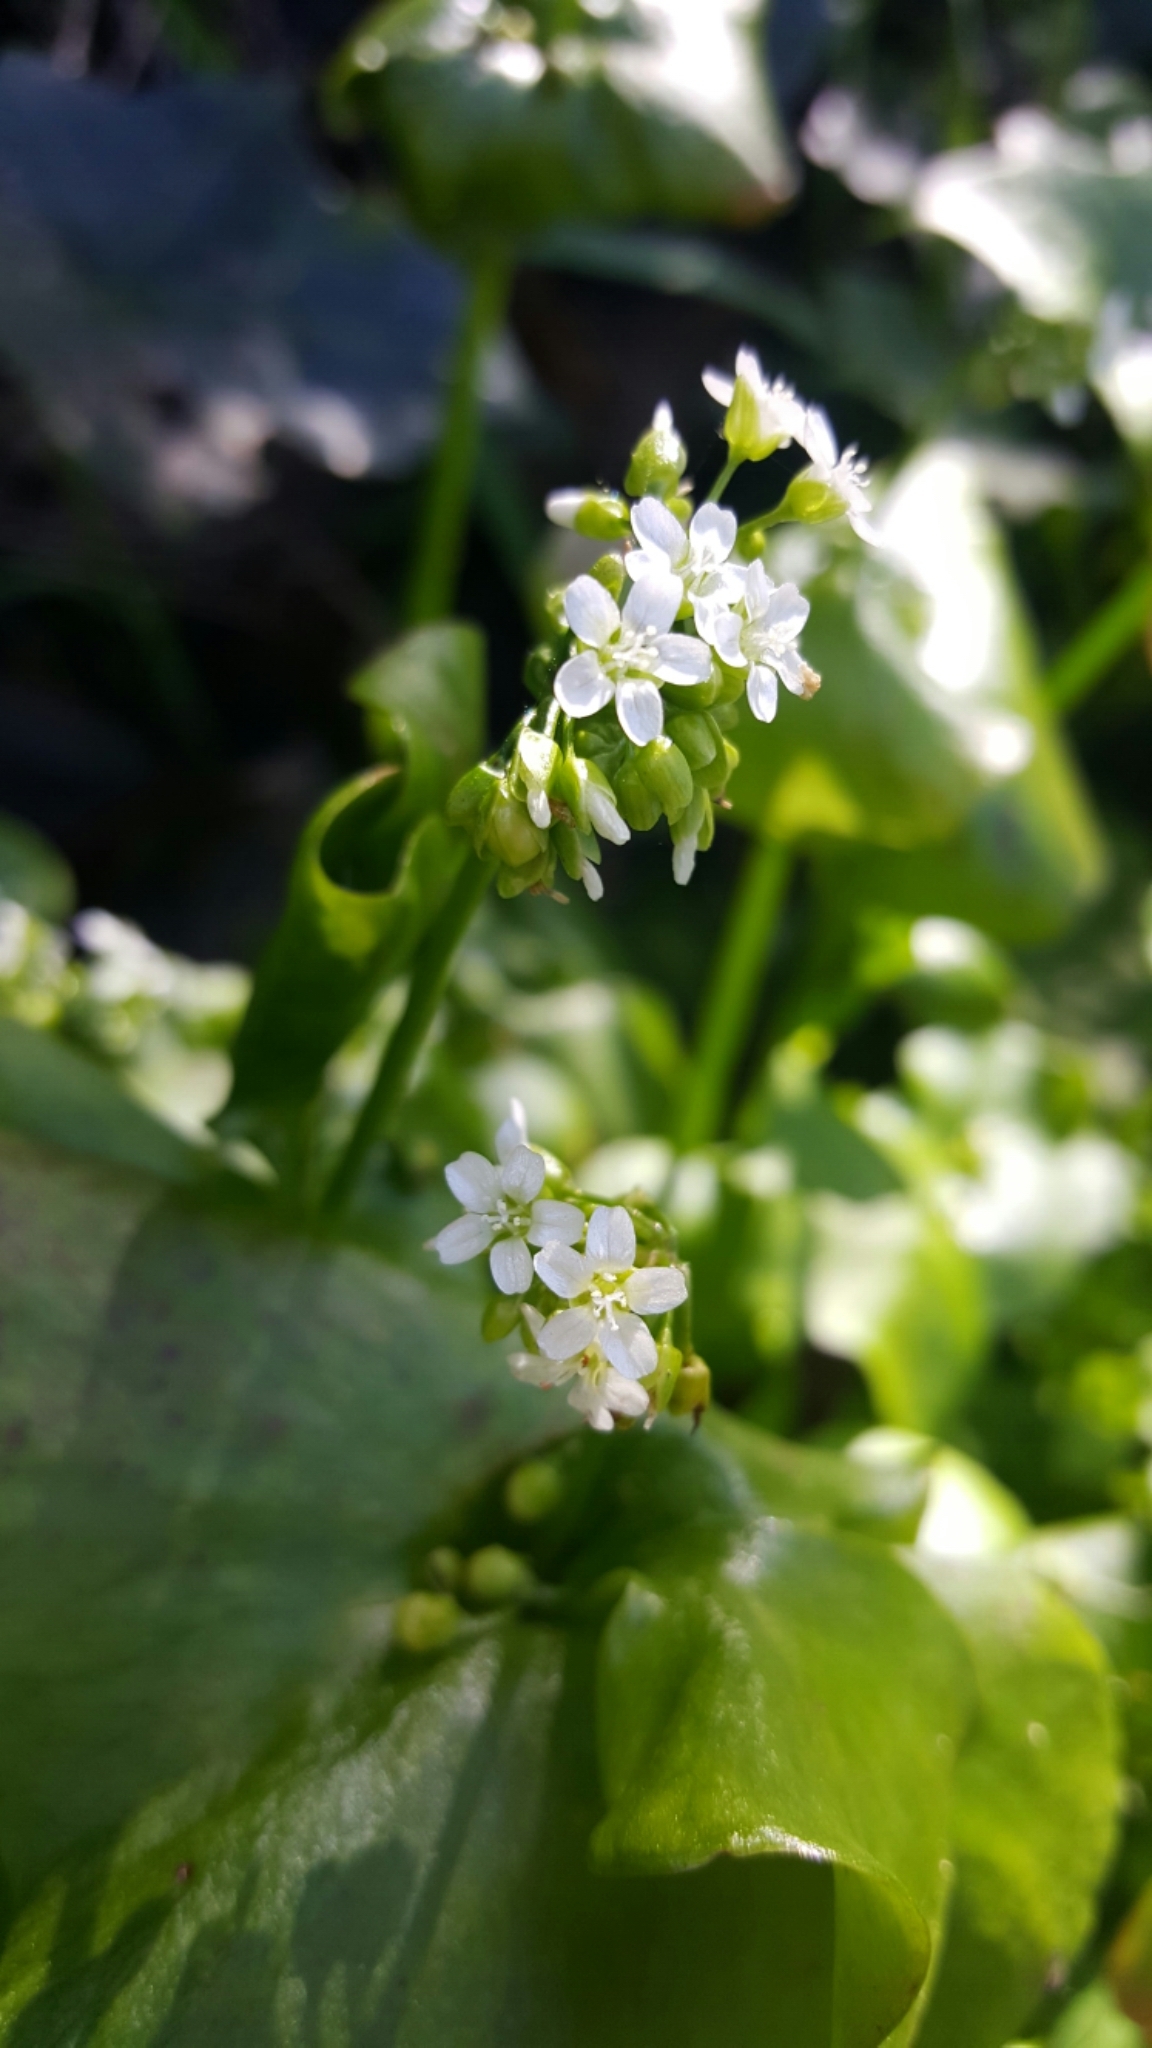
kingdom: Plantae
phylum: Tracheophyta
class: Magnoliopsida
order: Caryophyllales
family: Montiaceae
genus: Claytonia
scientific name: Claytonia perfoliata
